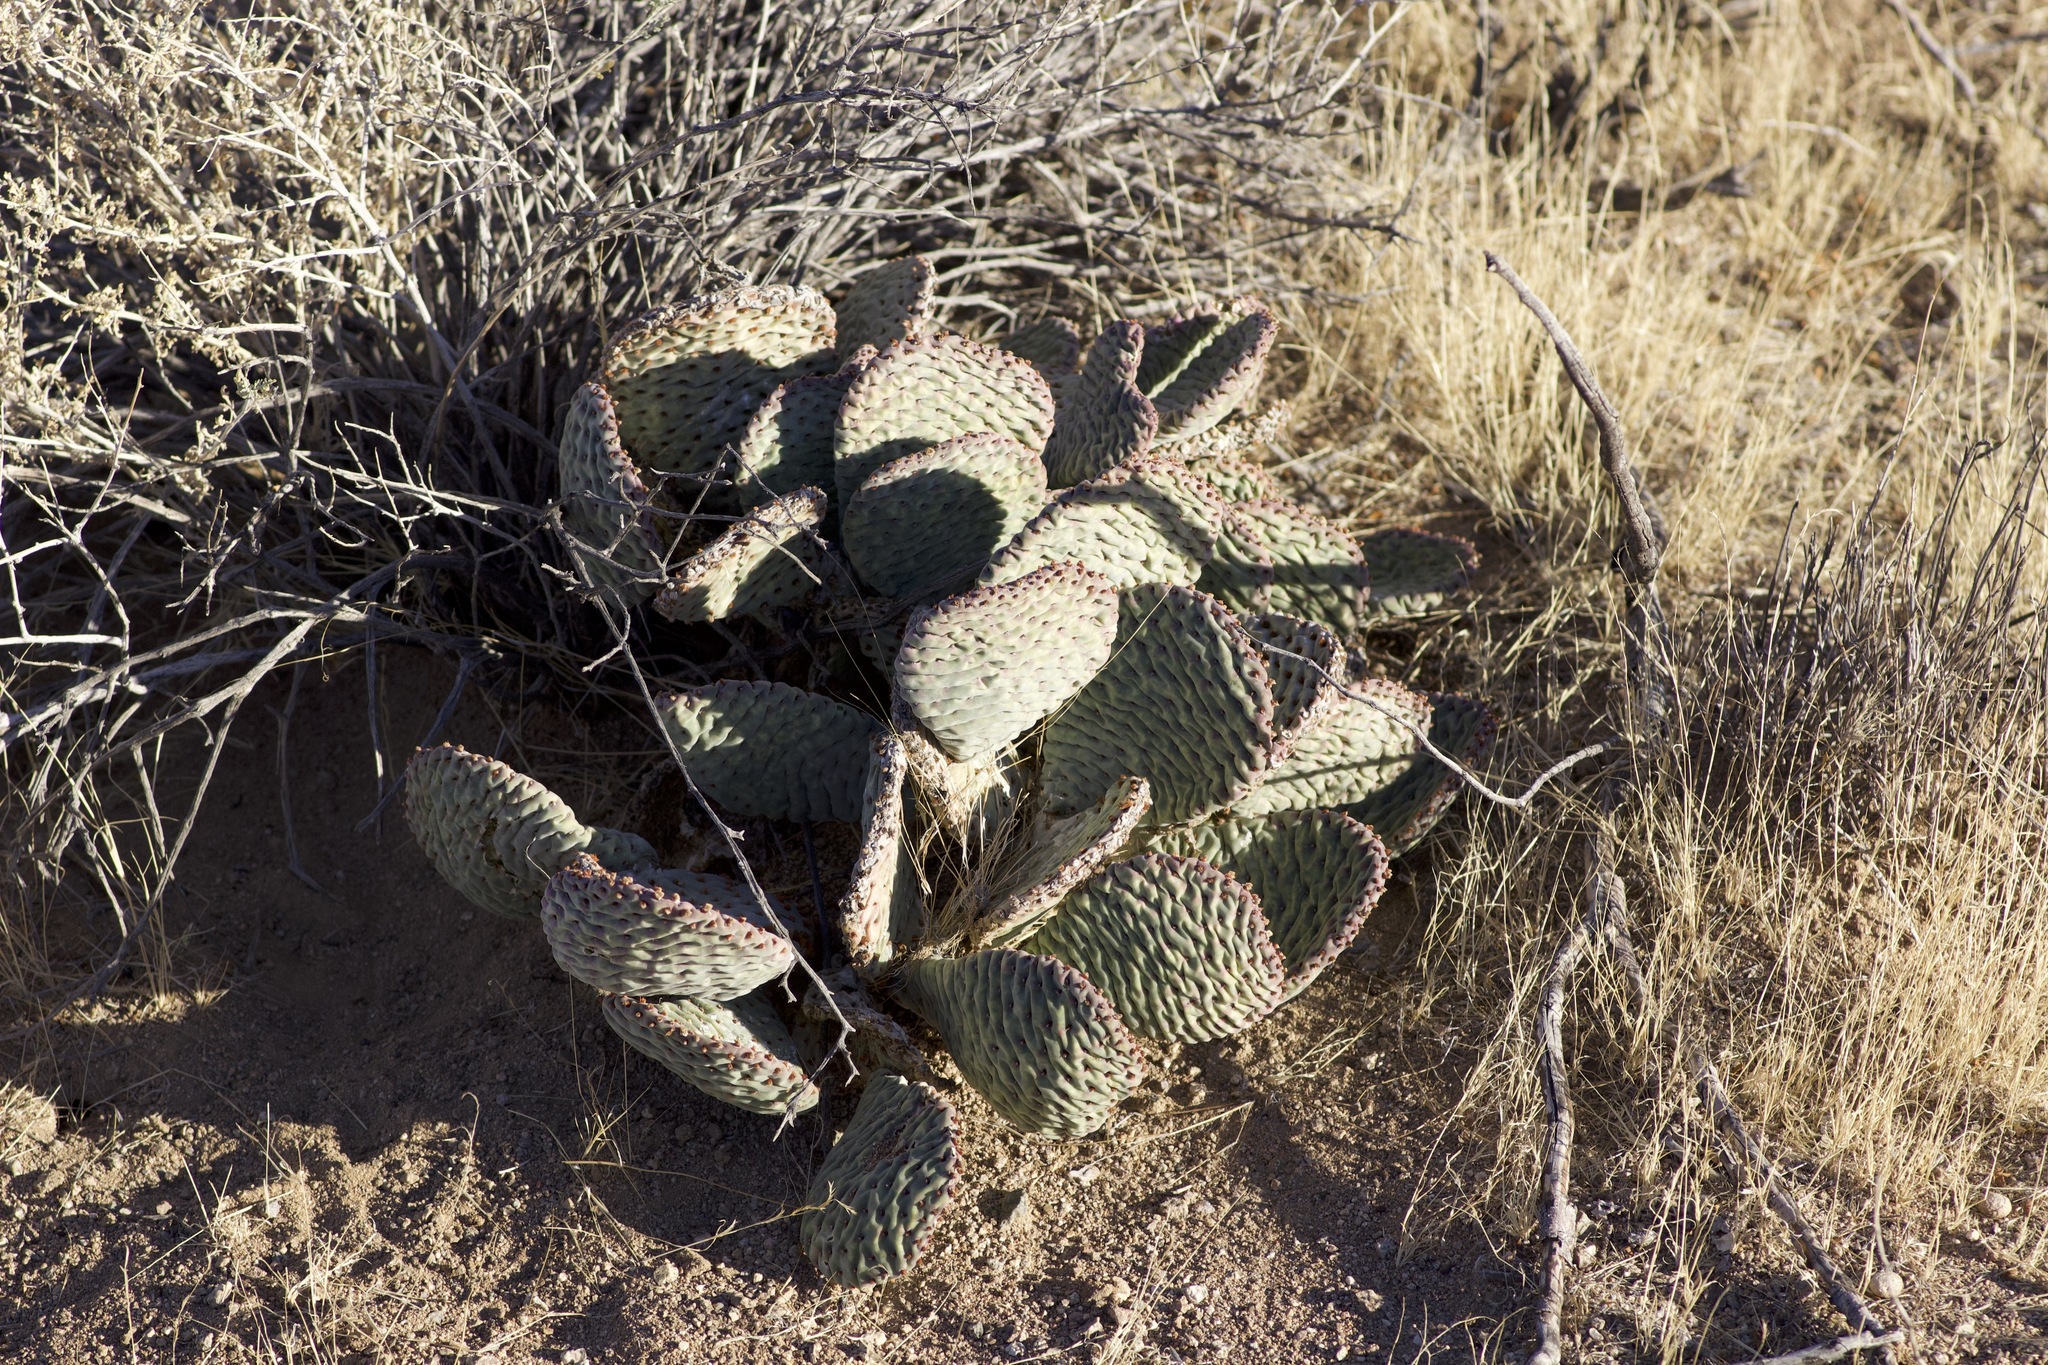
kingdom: Plantae
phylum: Tracheophyta
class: Magnoliopsida
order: Caryophyllales
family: Cactaceae
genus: Opuntia
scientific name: Opuntia basilaris
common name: Beavertail prickly-pear
